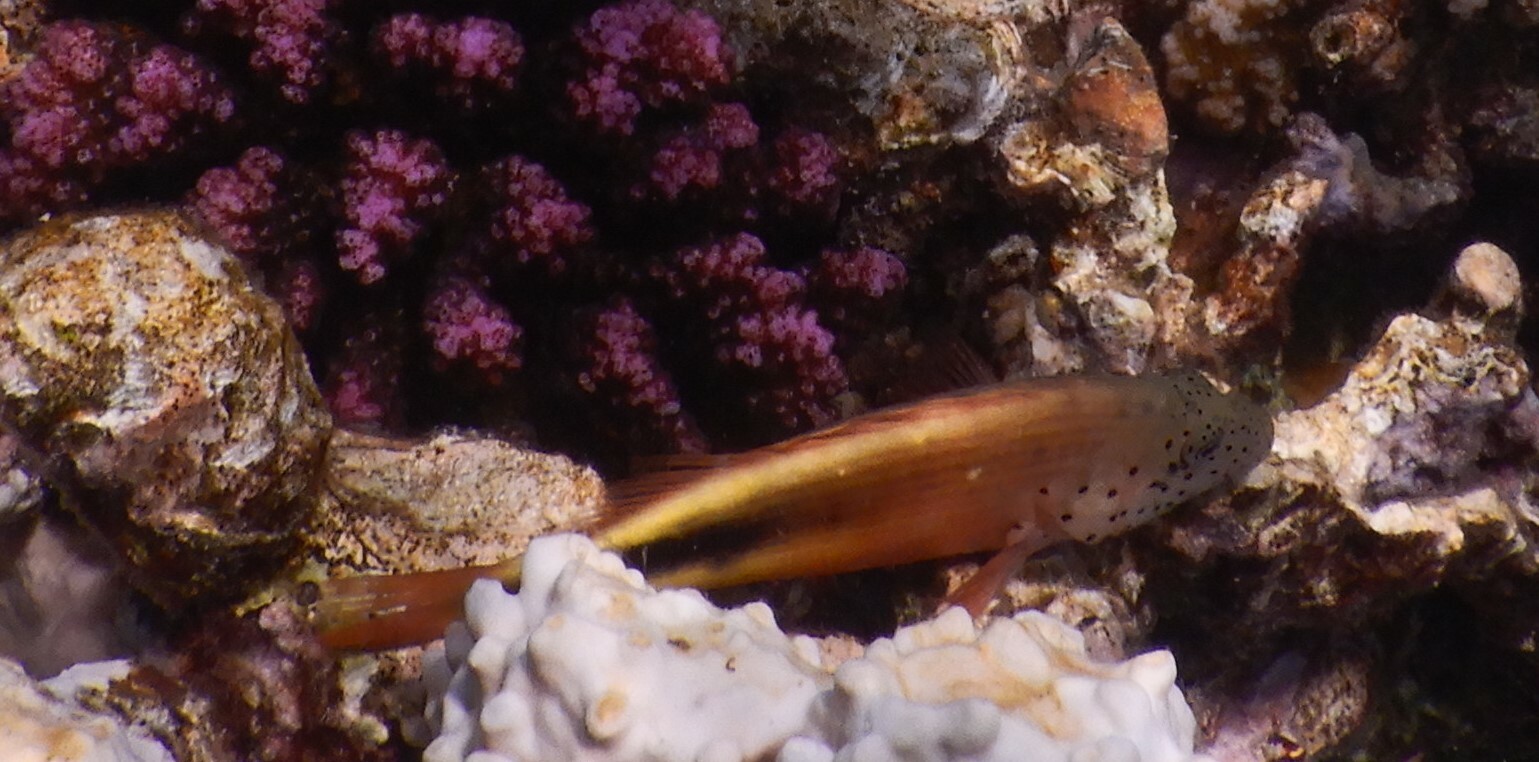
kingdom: Animalia
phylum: Chordata
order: Perciformes
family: Cirrhitidae
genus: Paracirrhites
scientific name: Paracirrhites forsteri
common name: Freckled hawkfish
